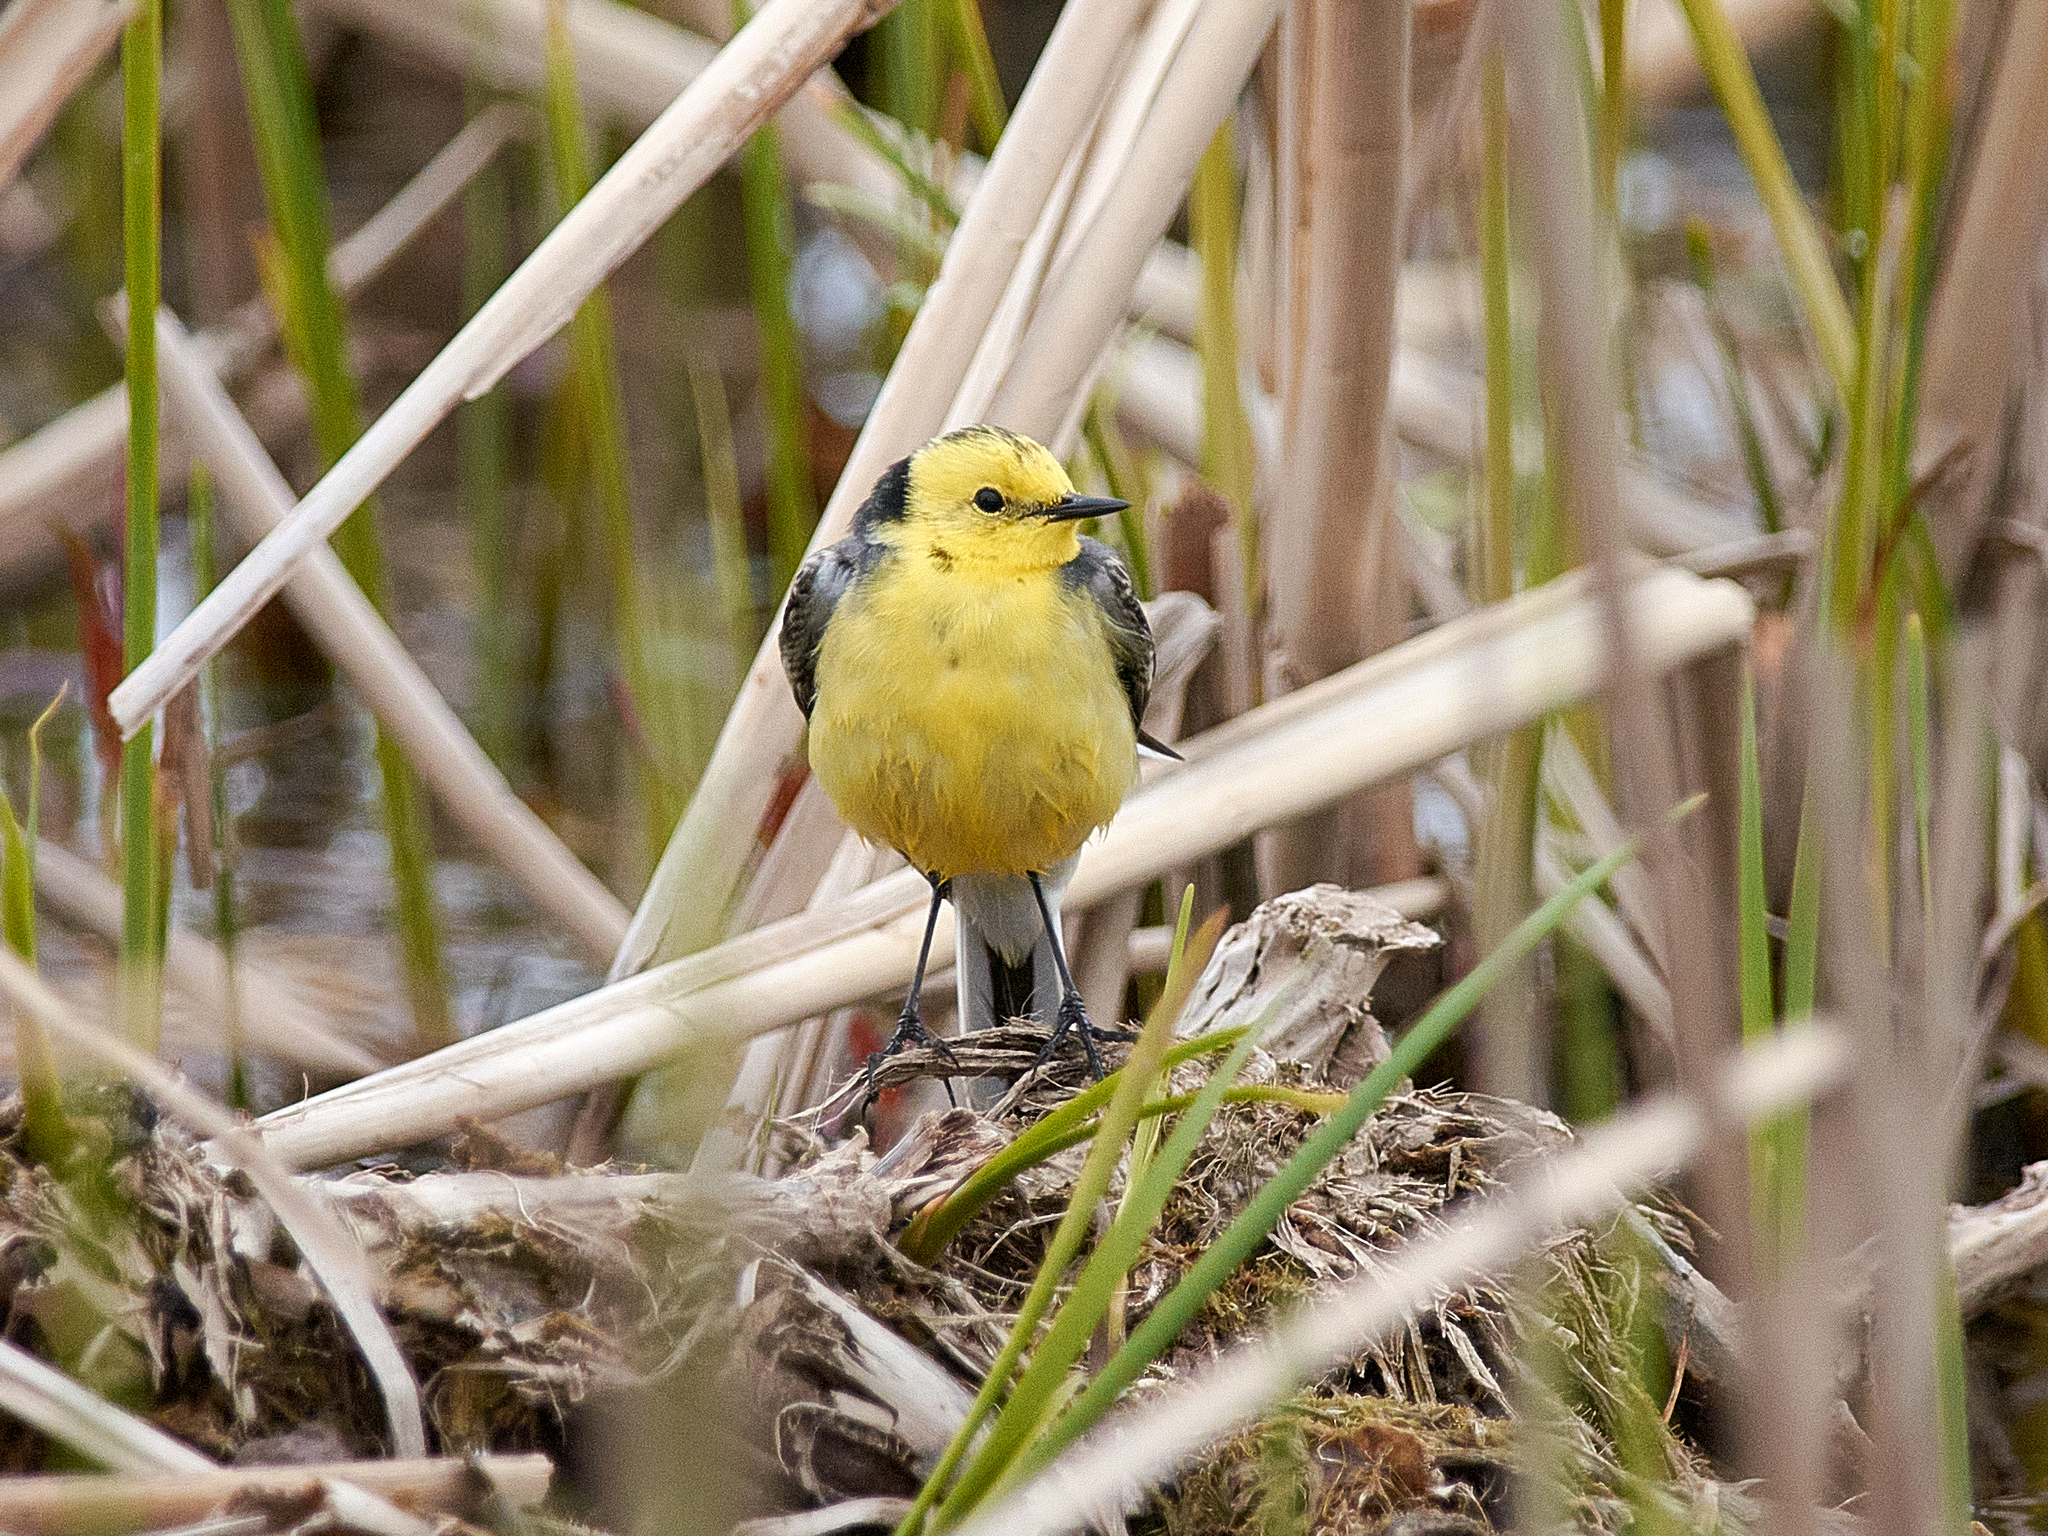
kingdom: Animalia
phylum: Chordata
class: Aves
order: Passeriformes
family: Motacillidae
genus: Motacilla
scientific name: Motacilla citreola
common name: Citrine wagtail
